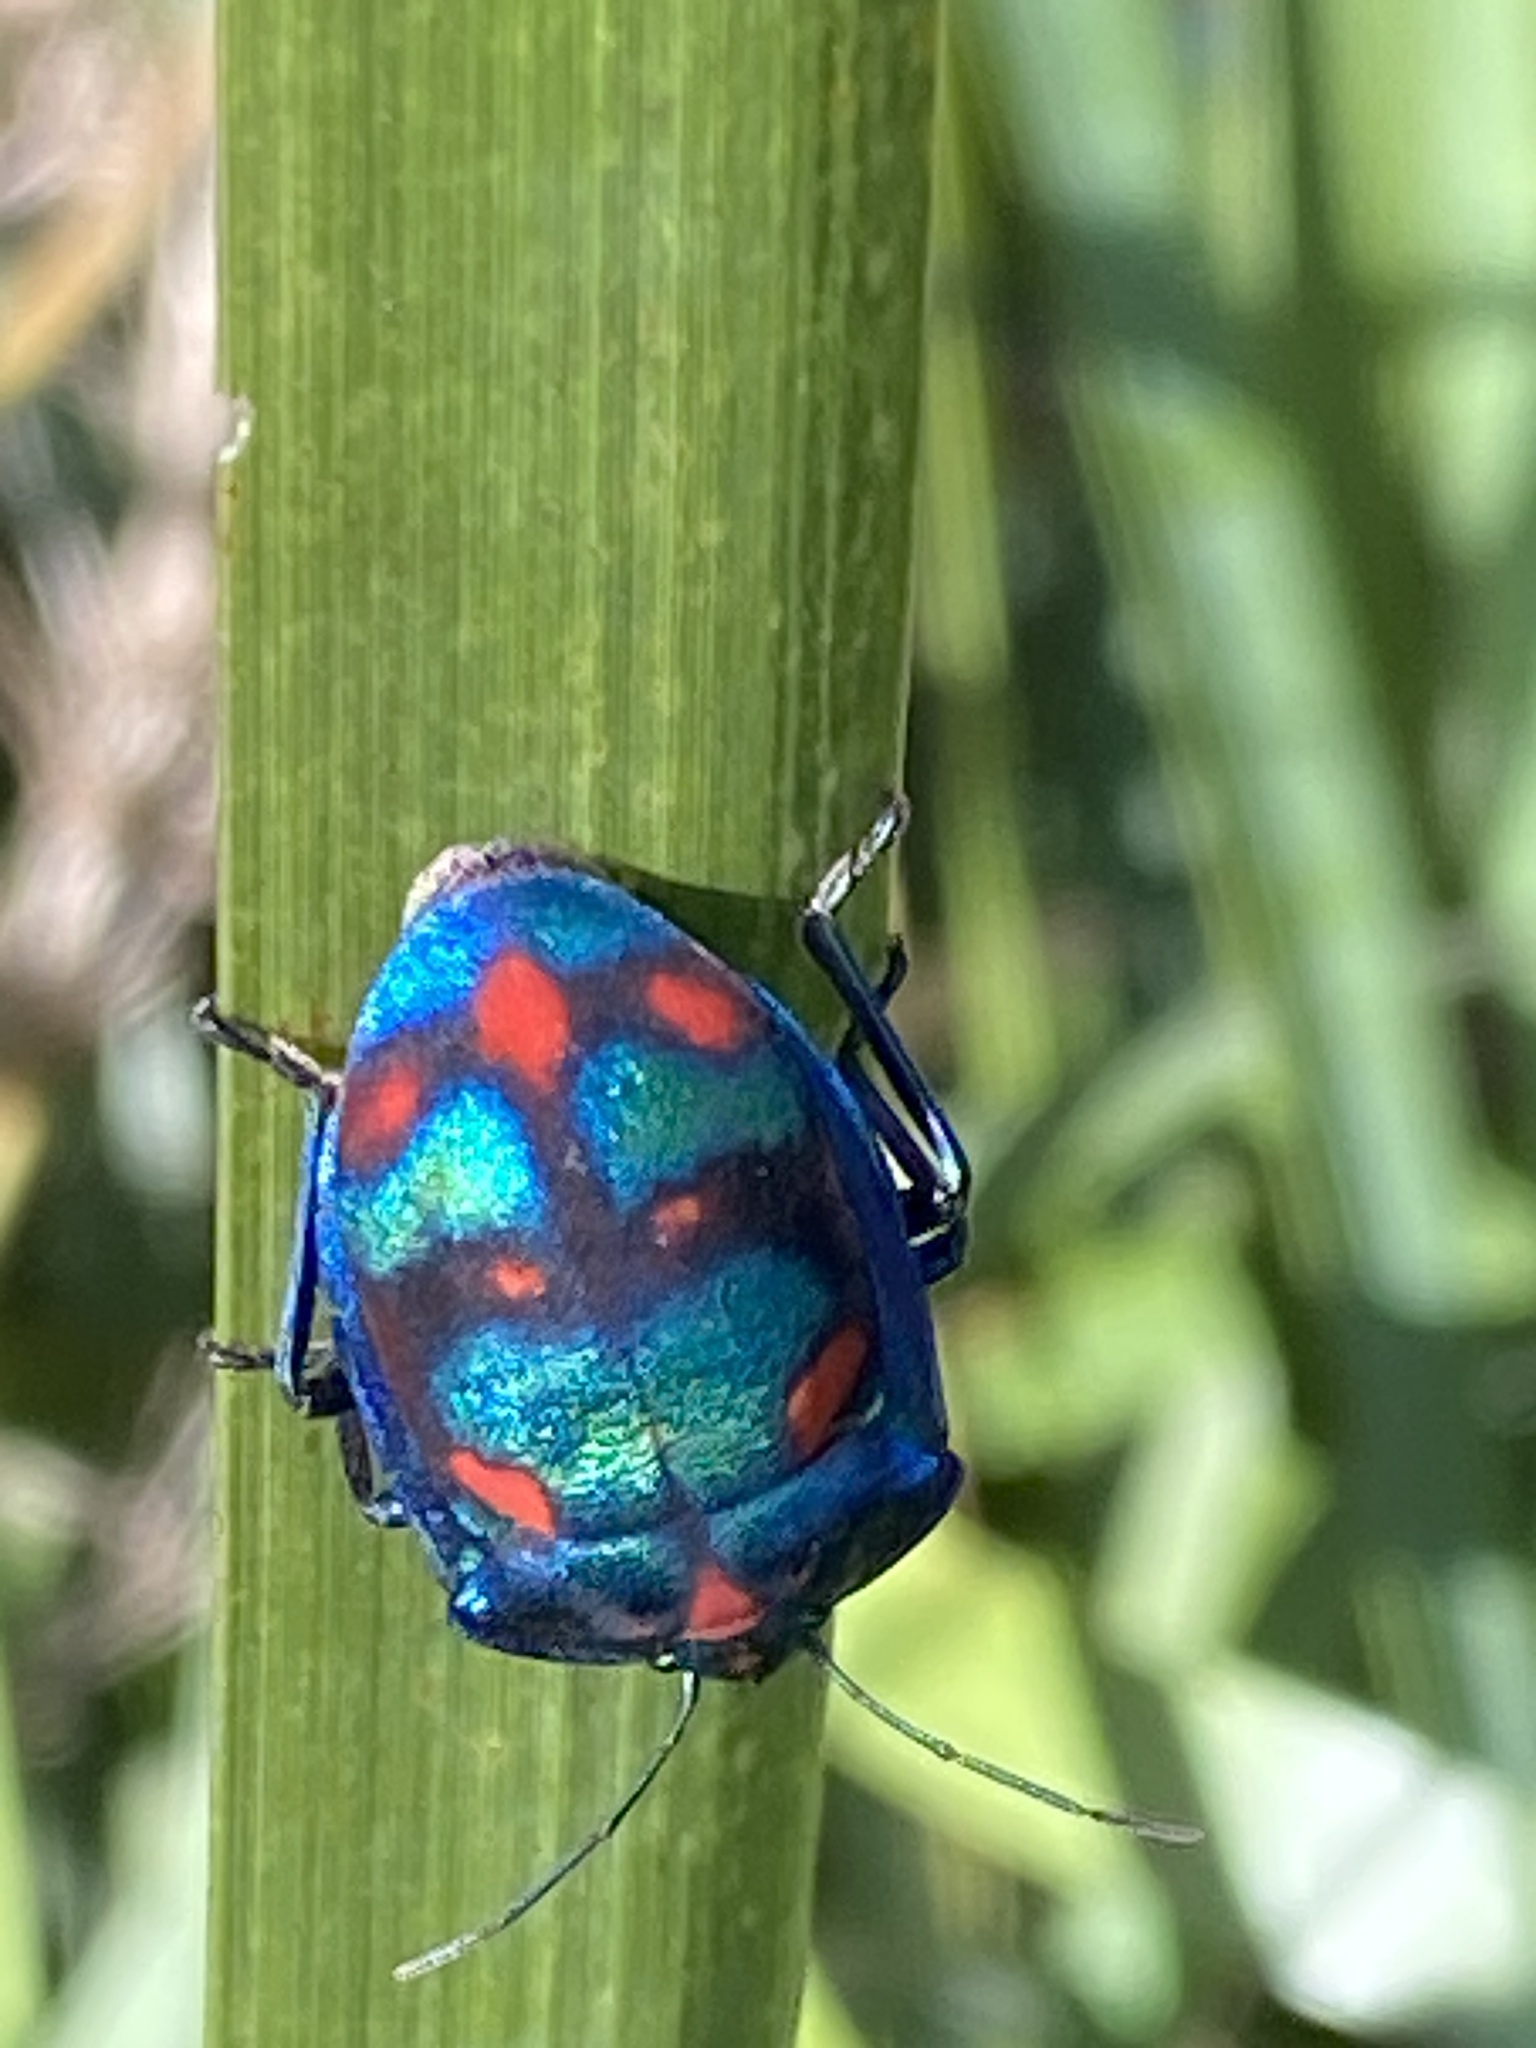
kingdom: Animalia
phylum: Arthropoda
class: Insecta
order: Hemiptera
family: Scutelleridae
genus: Tectocoris
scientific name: Tectocoris diophthalmus
